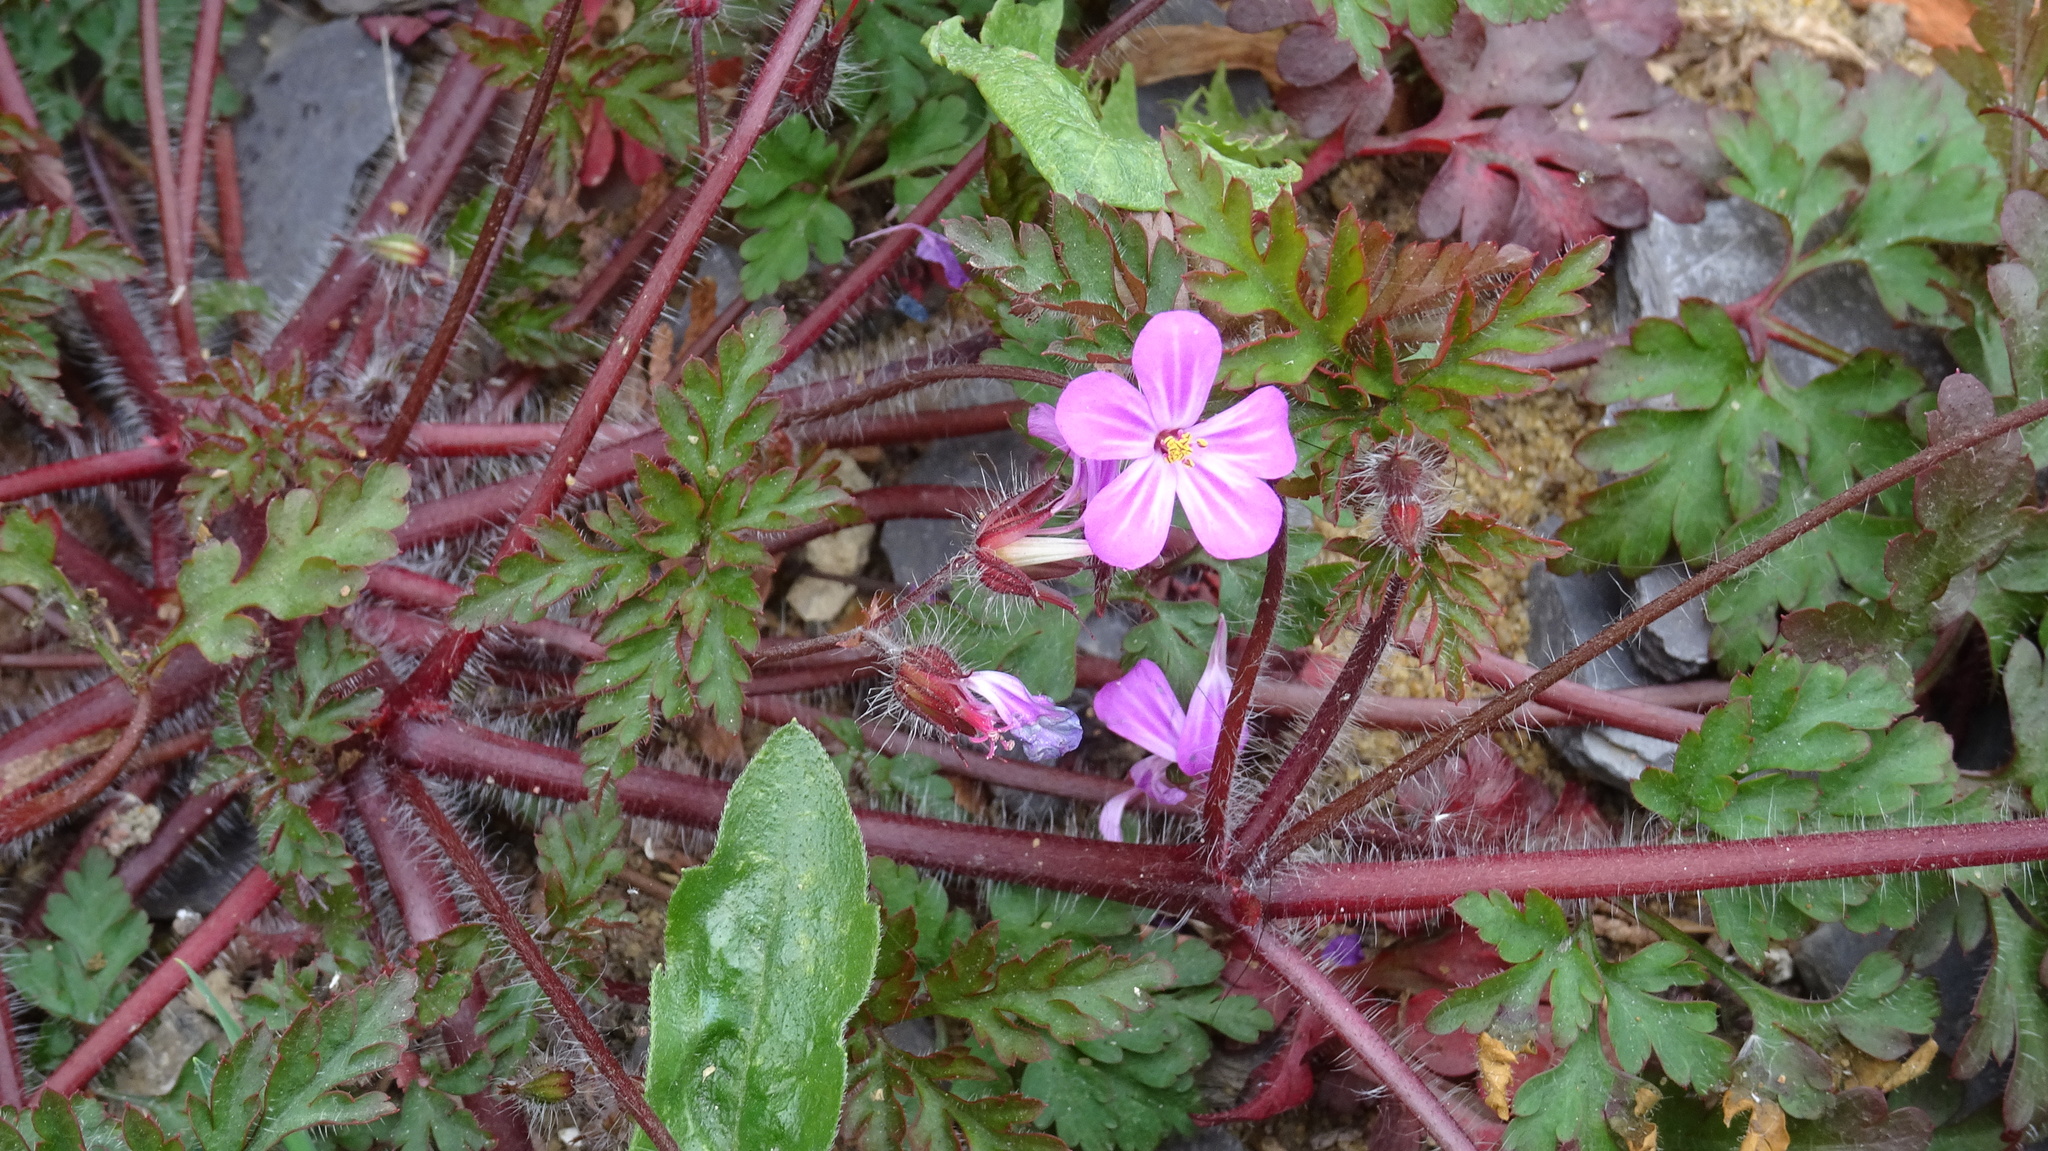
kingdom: Plantae
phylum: Tracheophyta
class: Magnoliopsida
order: Geraniales
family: Geraniaceae
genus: Geranium
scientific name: Geranium robertianum
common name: Herb-robert
